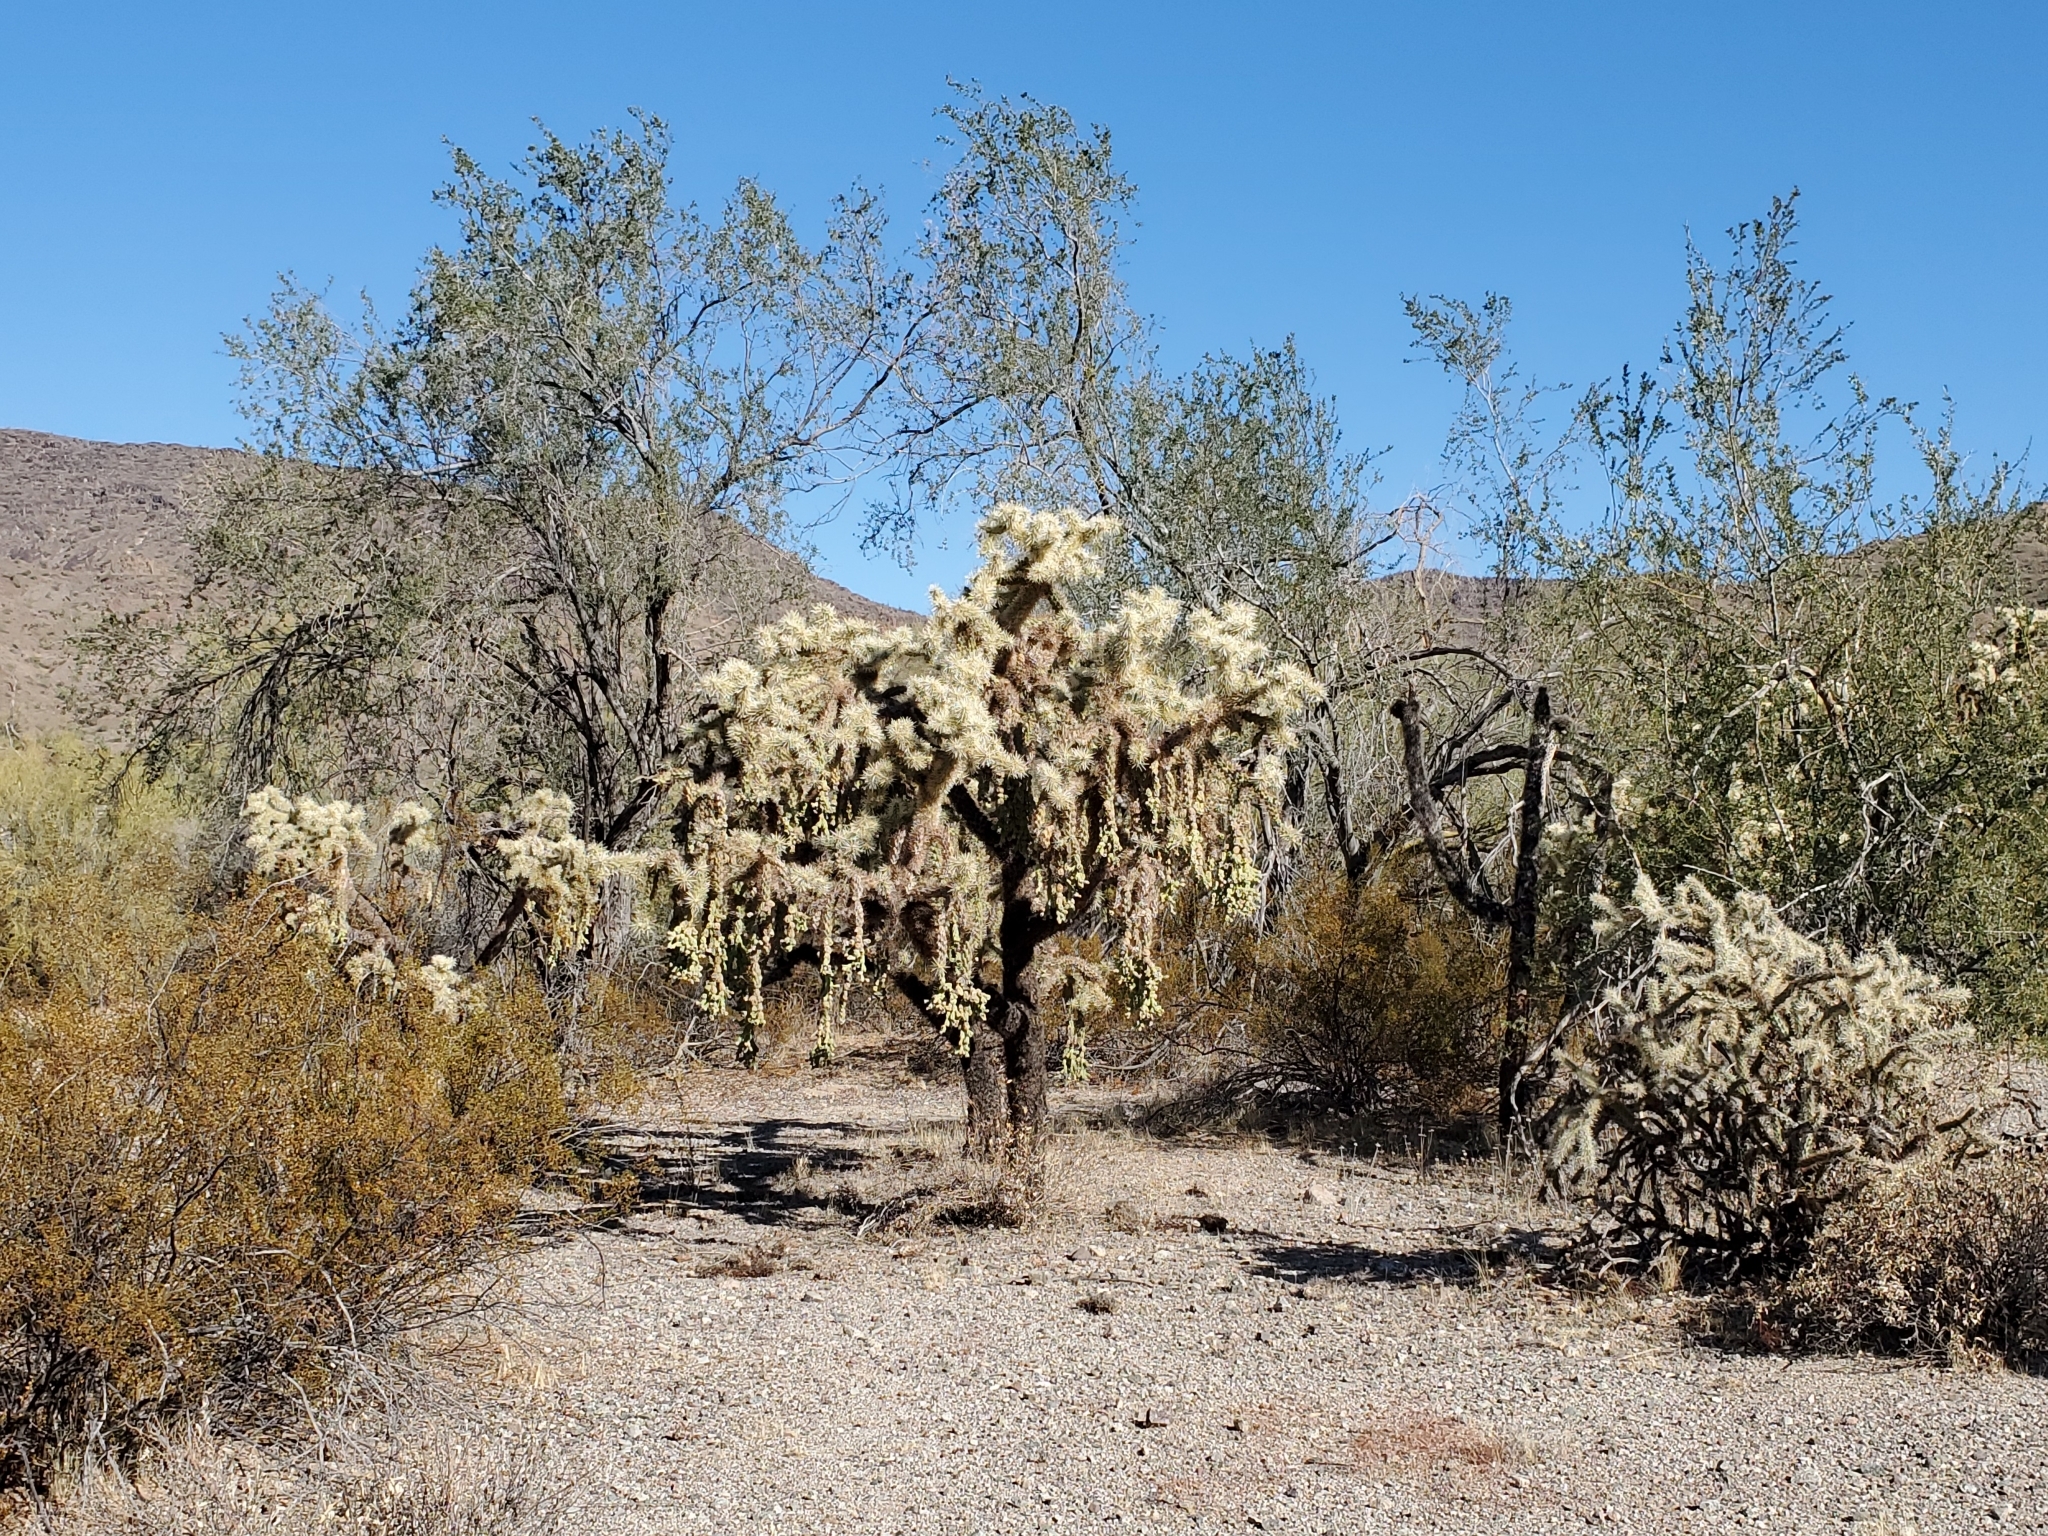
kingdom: Plantae
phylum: Tracheophyta
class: Magnoliopsida
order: Caryophyllales
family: Cactaceae
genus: Cylindropuntia
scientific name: Cylindropuntia fulgida
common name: Jumping cholla
